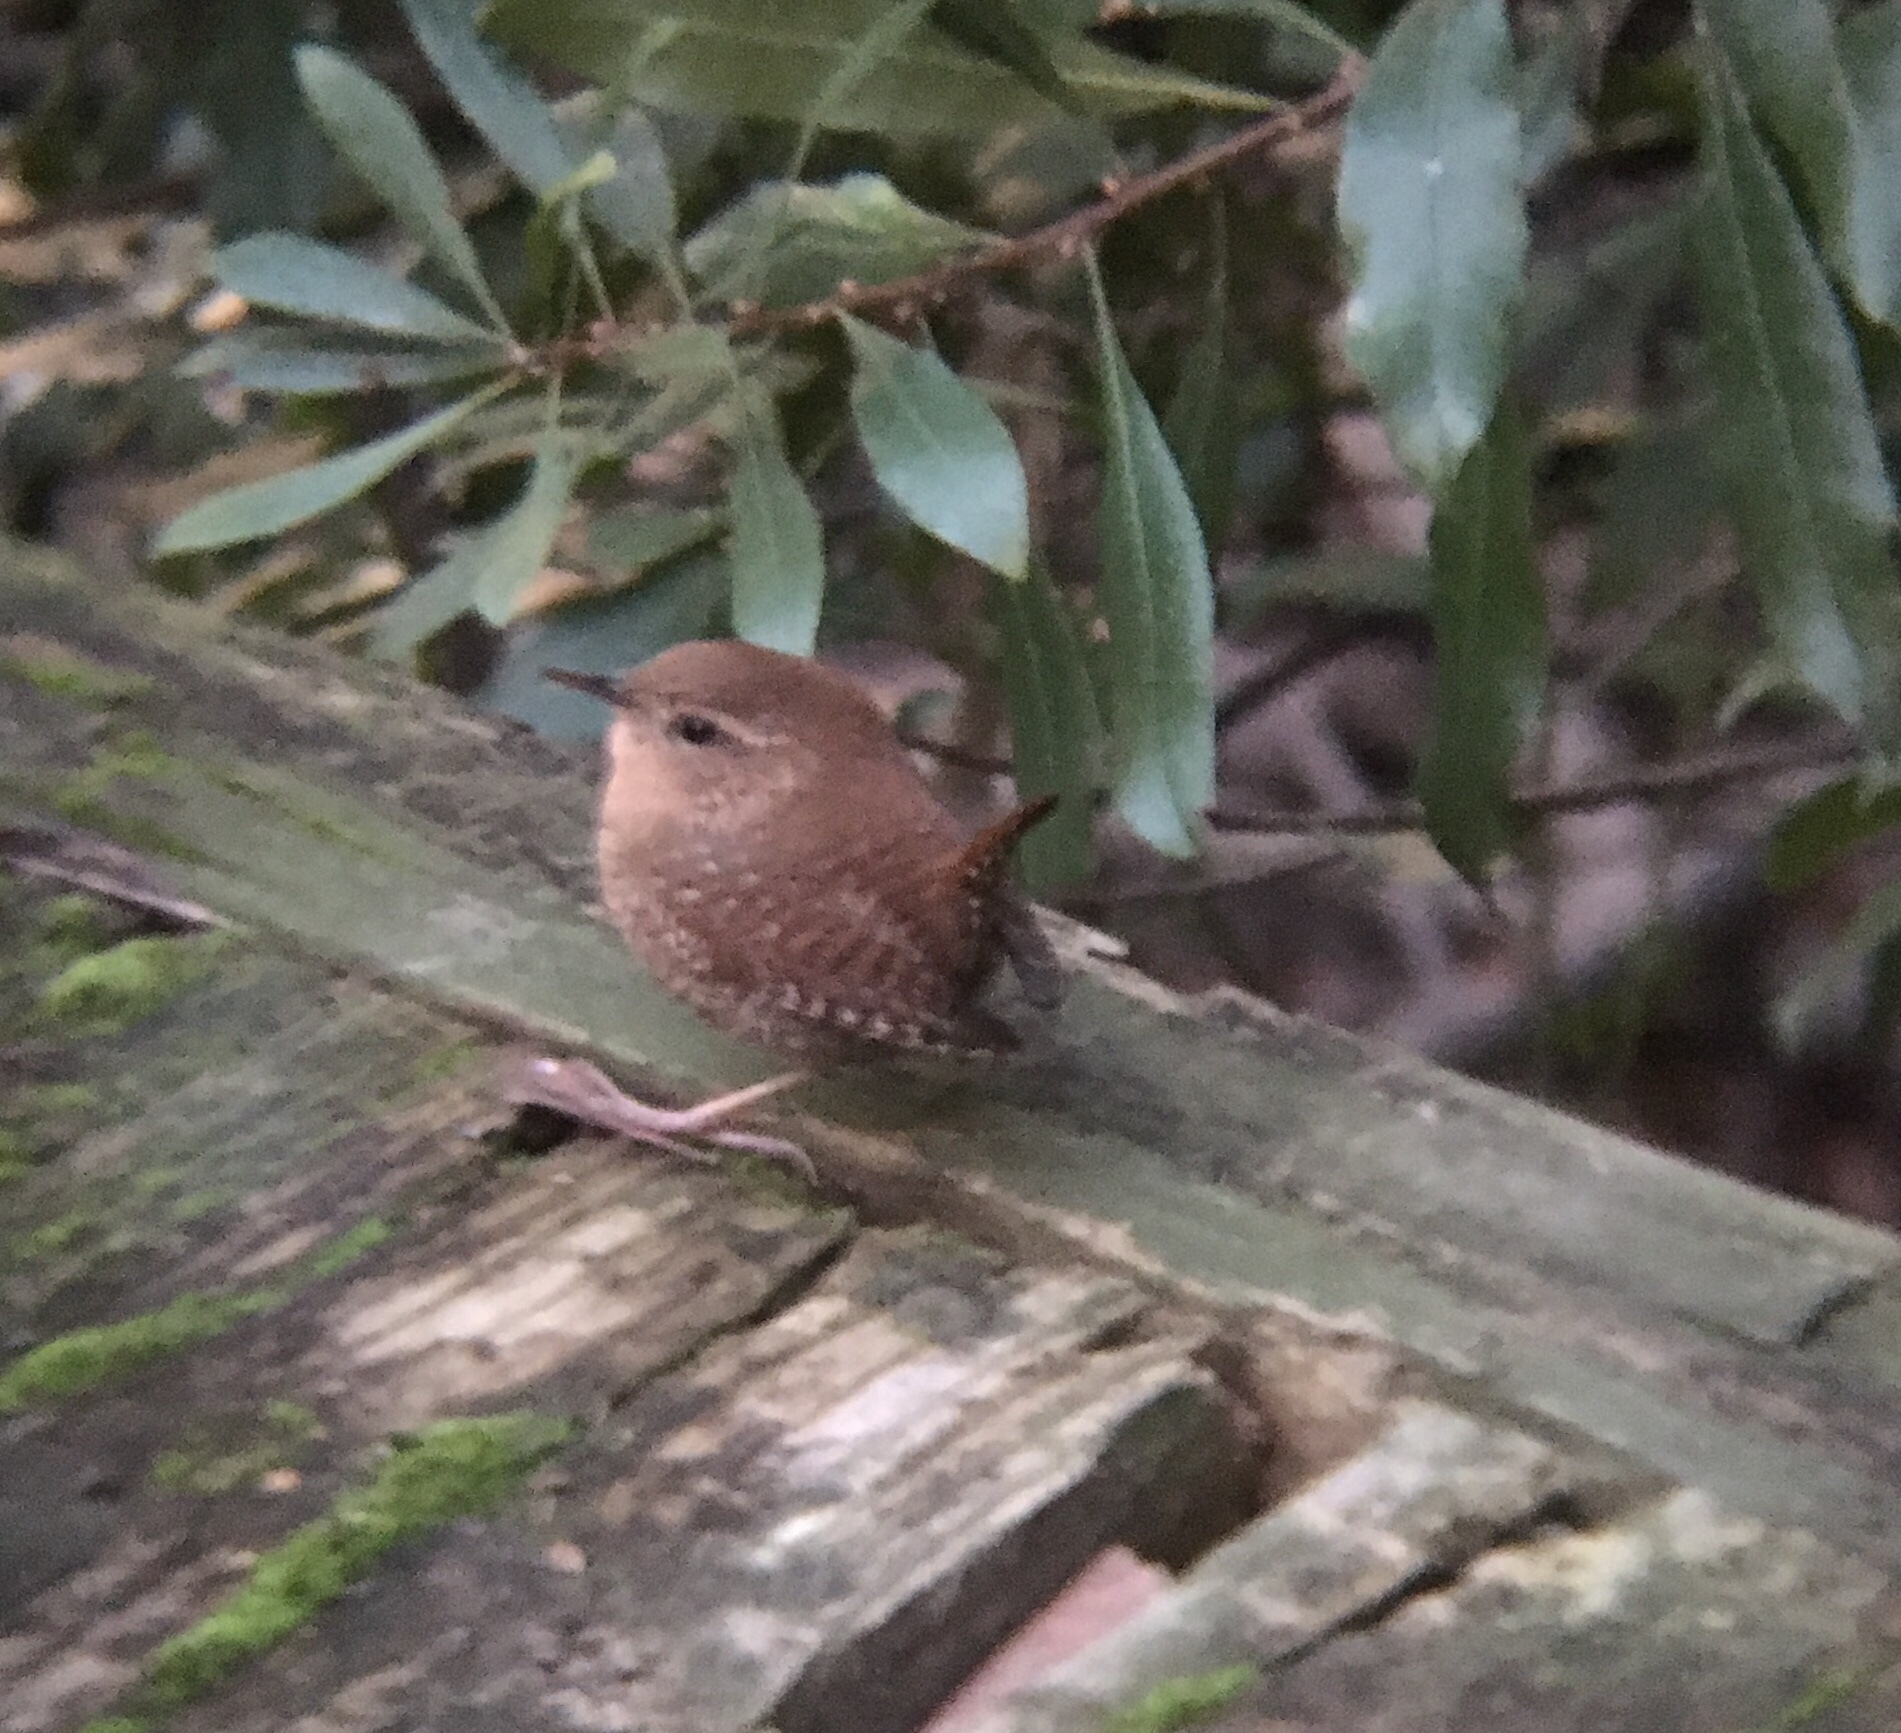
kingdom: Animalia
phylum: Chordata
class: Aves
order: Passeriformes
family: Troglodytidae
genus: Troglodytes
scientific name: Troglodytes hiemalis
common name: Winter wren
